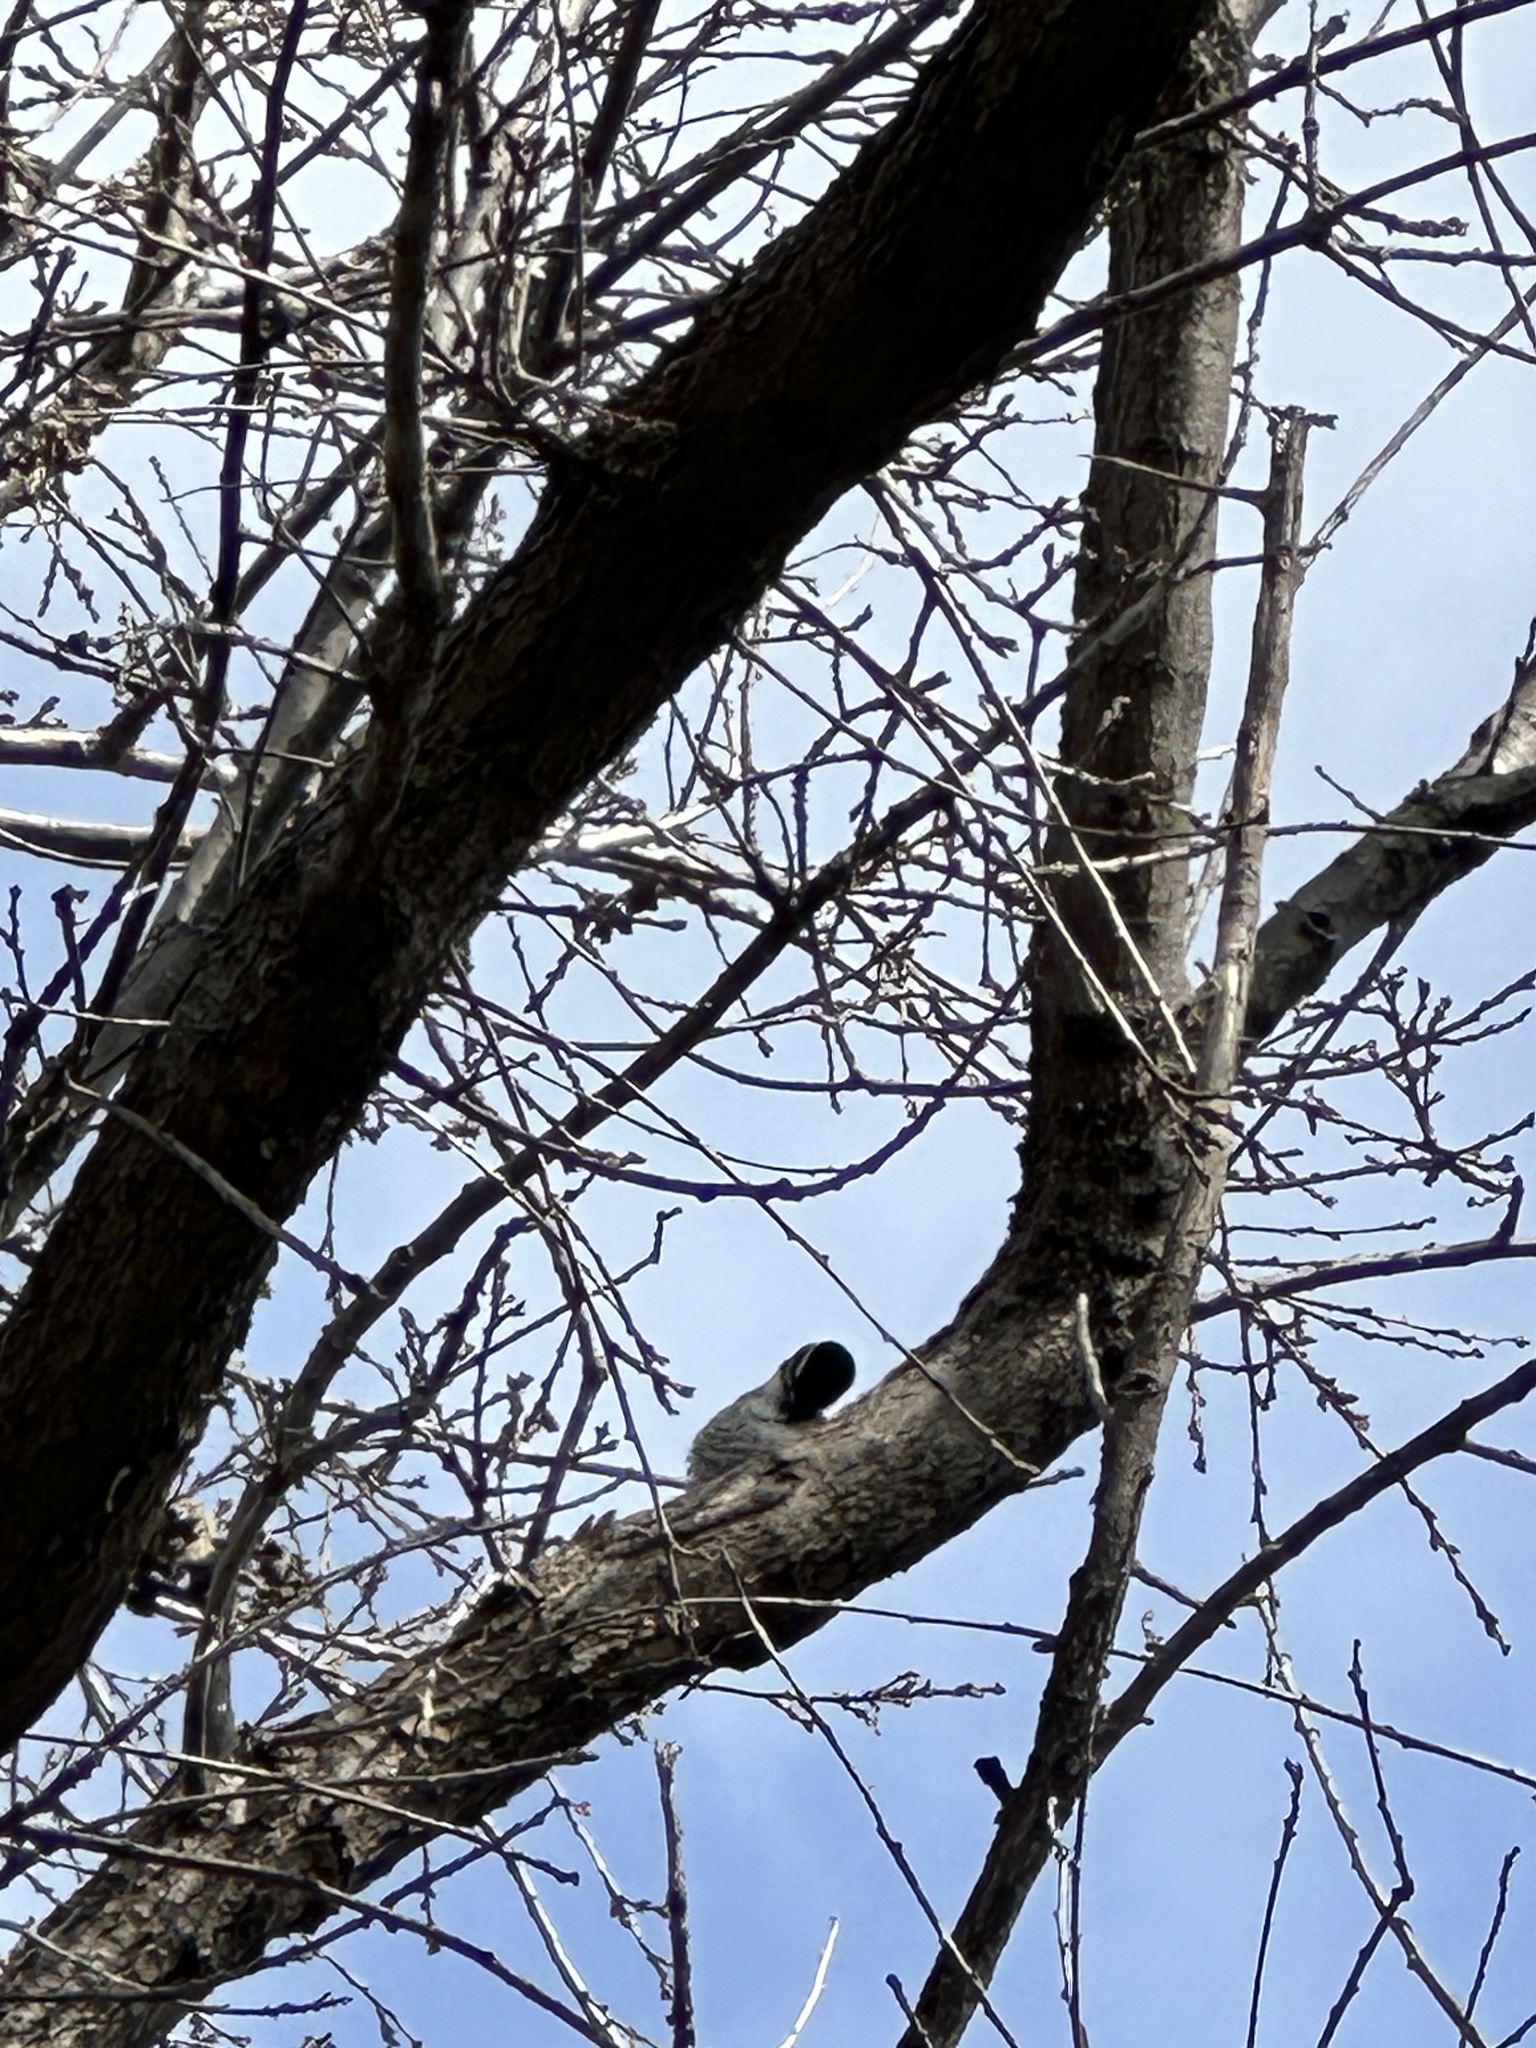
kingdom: Animalia
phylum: Chordata
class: Aves
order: Piciformes
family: Picidae
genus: Dryobates
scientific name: Dryobates nuttallii
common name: Nuttall's woodpecker
